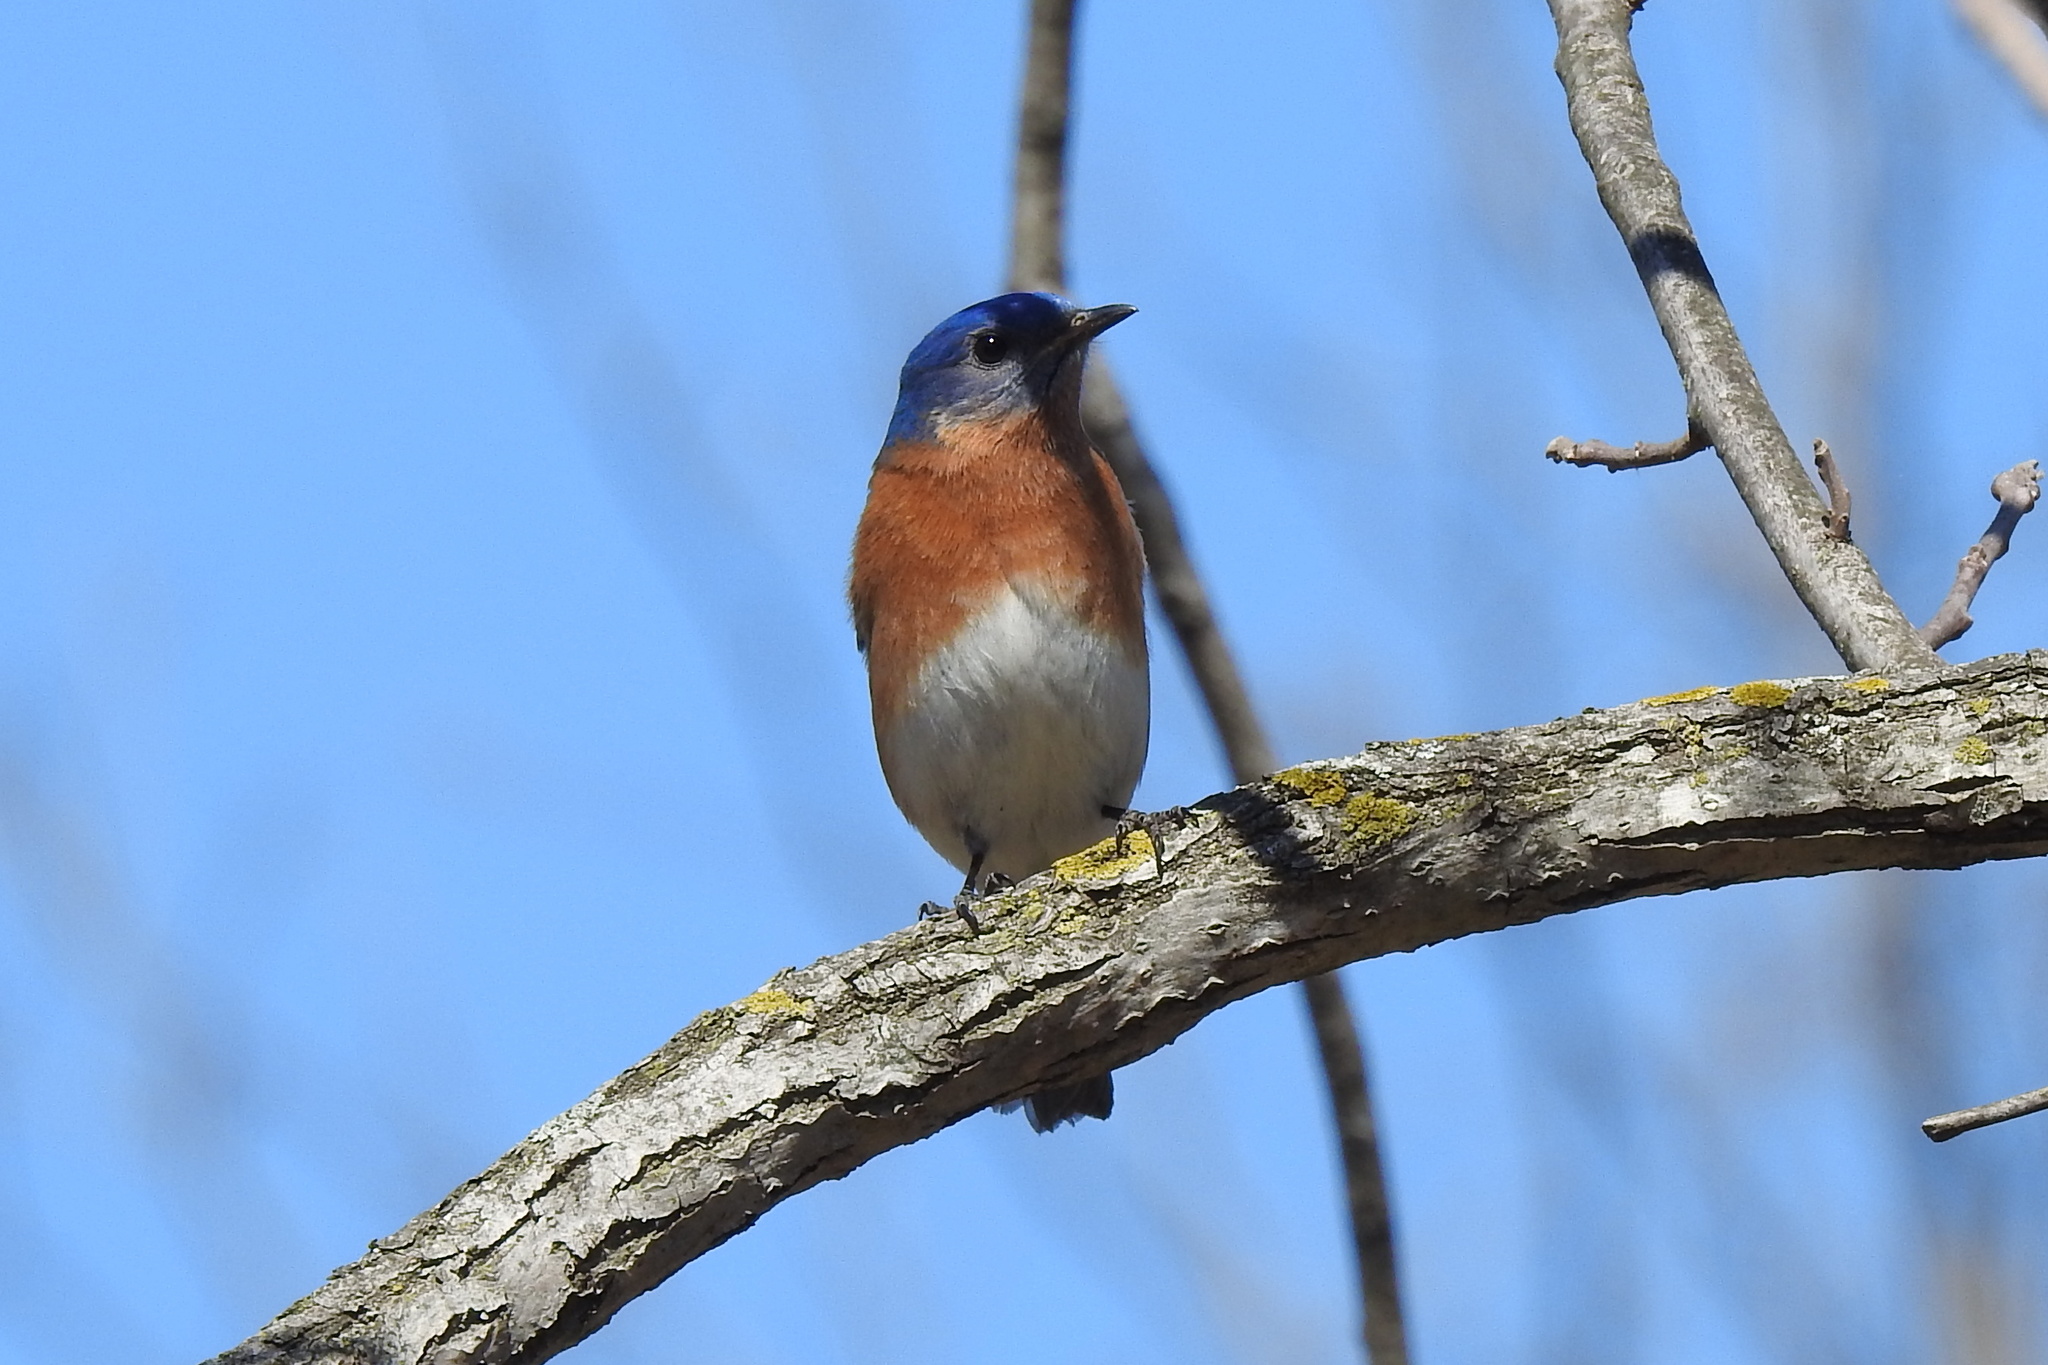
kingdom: Animalia
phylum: Chordata
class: Aves
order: Passeriformes
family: Turdidae
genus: Sialia
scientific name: Sialia sialis
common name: Eastern bluebird
